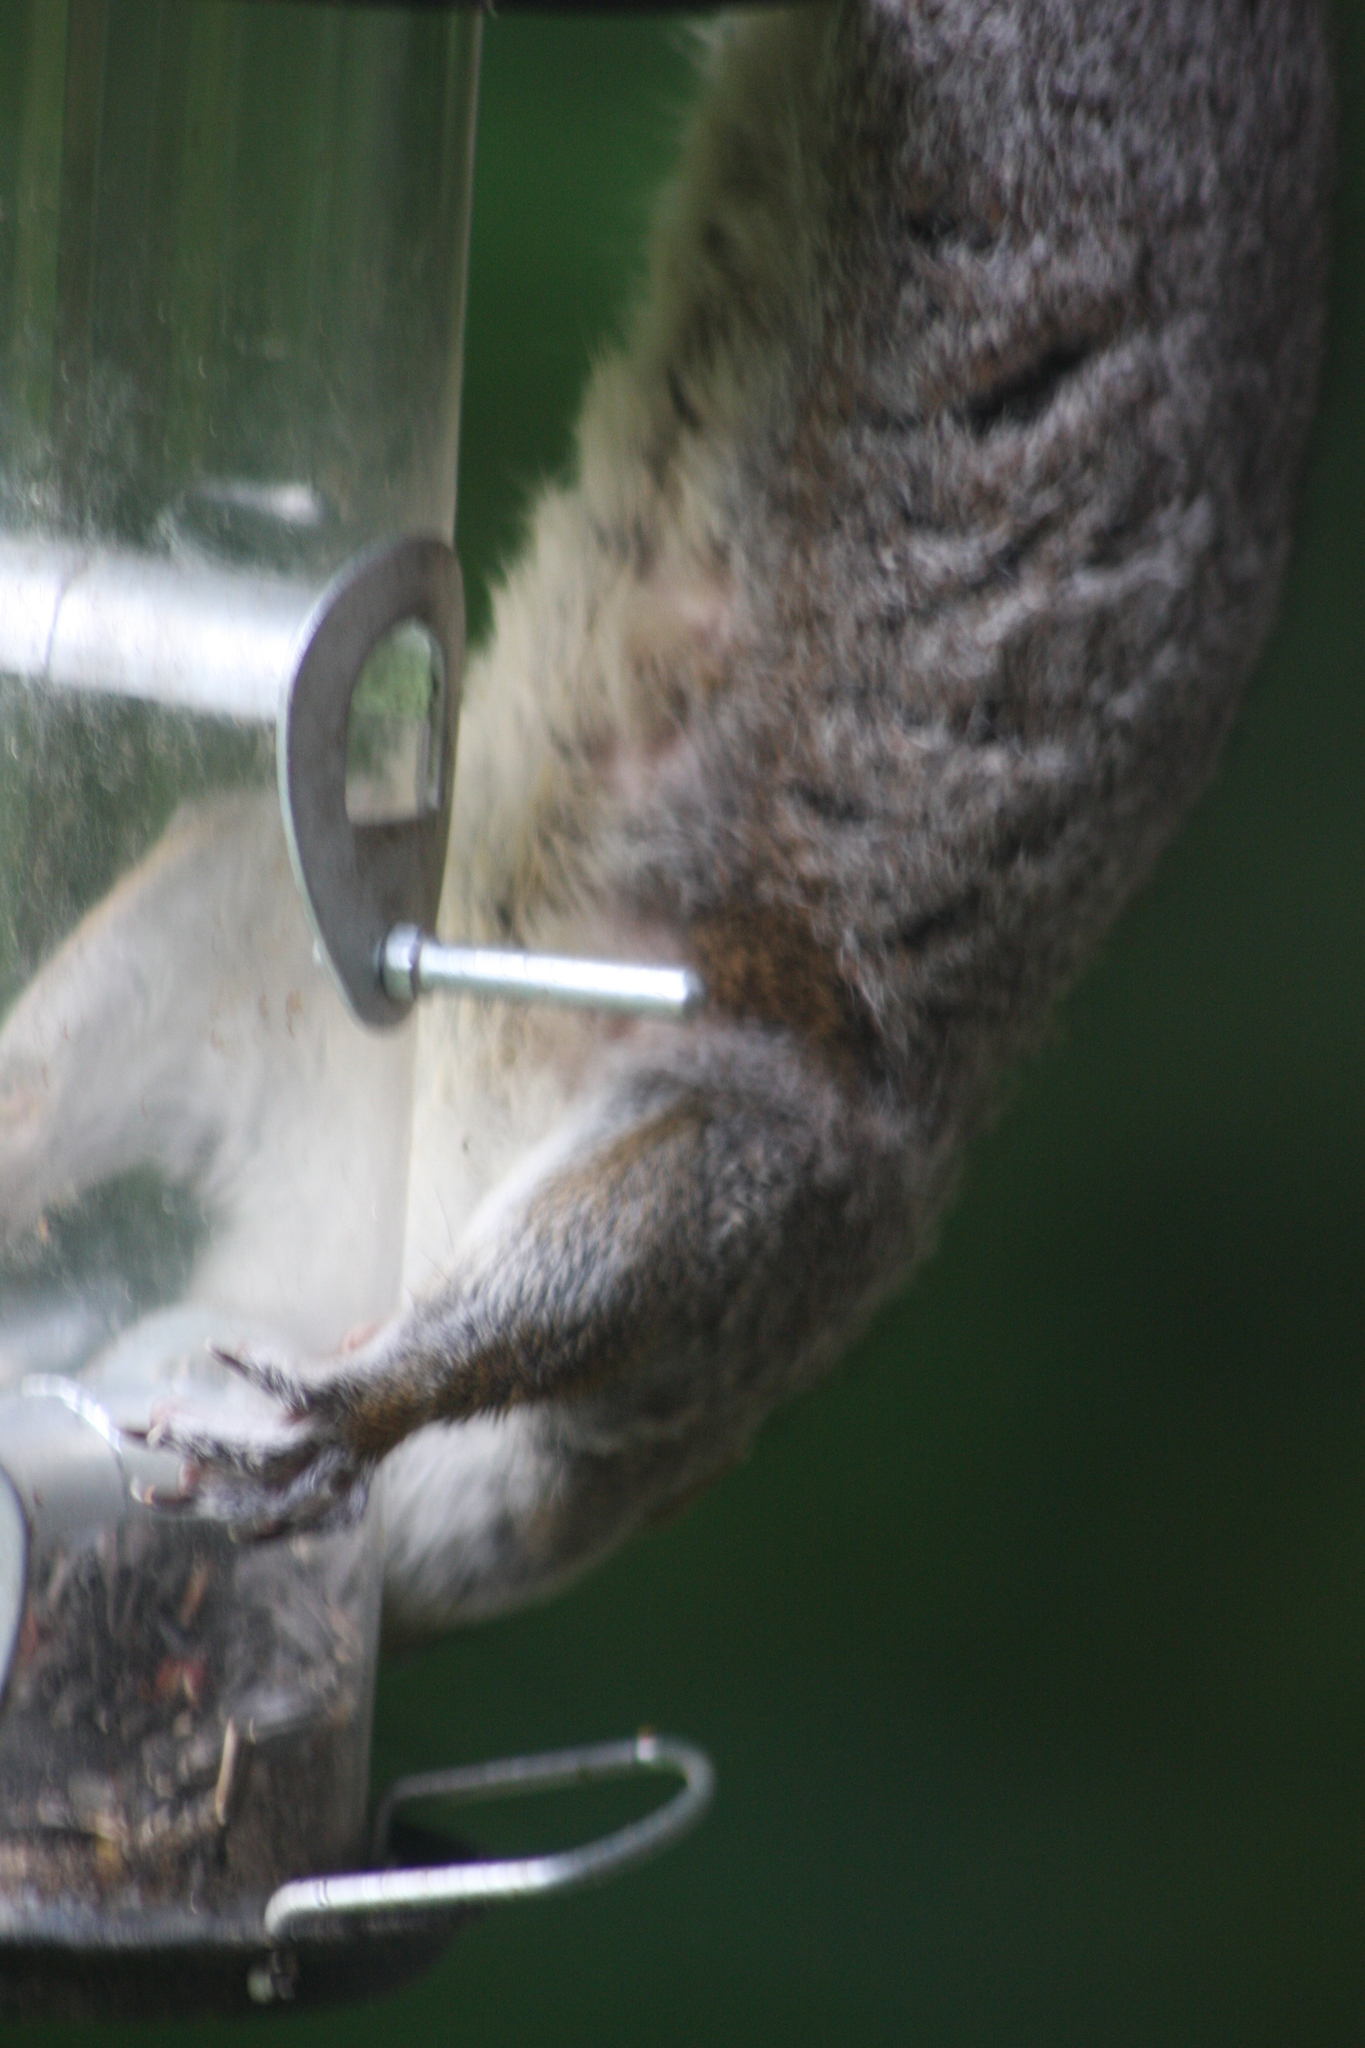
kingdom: Animalia
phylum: Chordata
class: Mammalia
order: Rodentia
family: Sciuridae
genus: Sciurus
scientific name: Sciurus carolinensis
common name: Eastern gray squirrel
